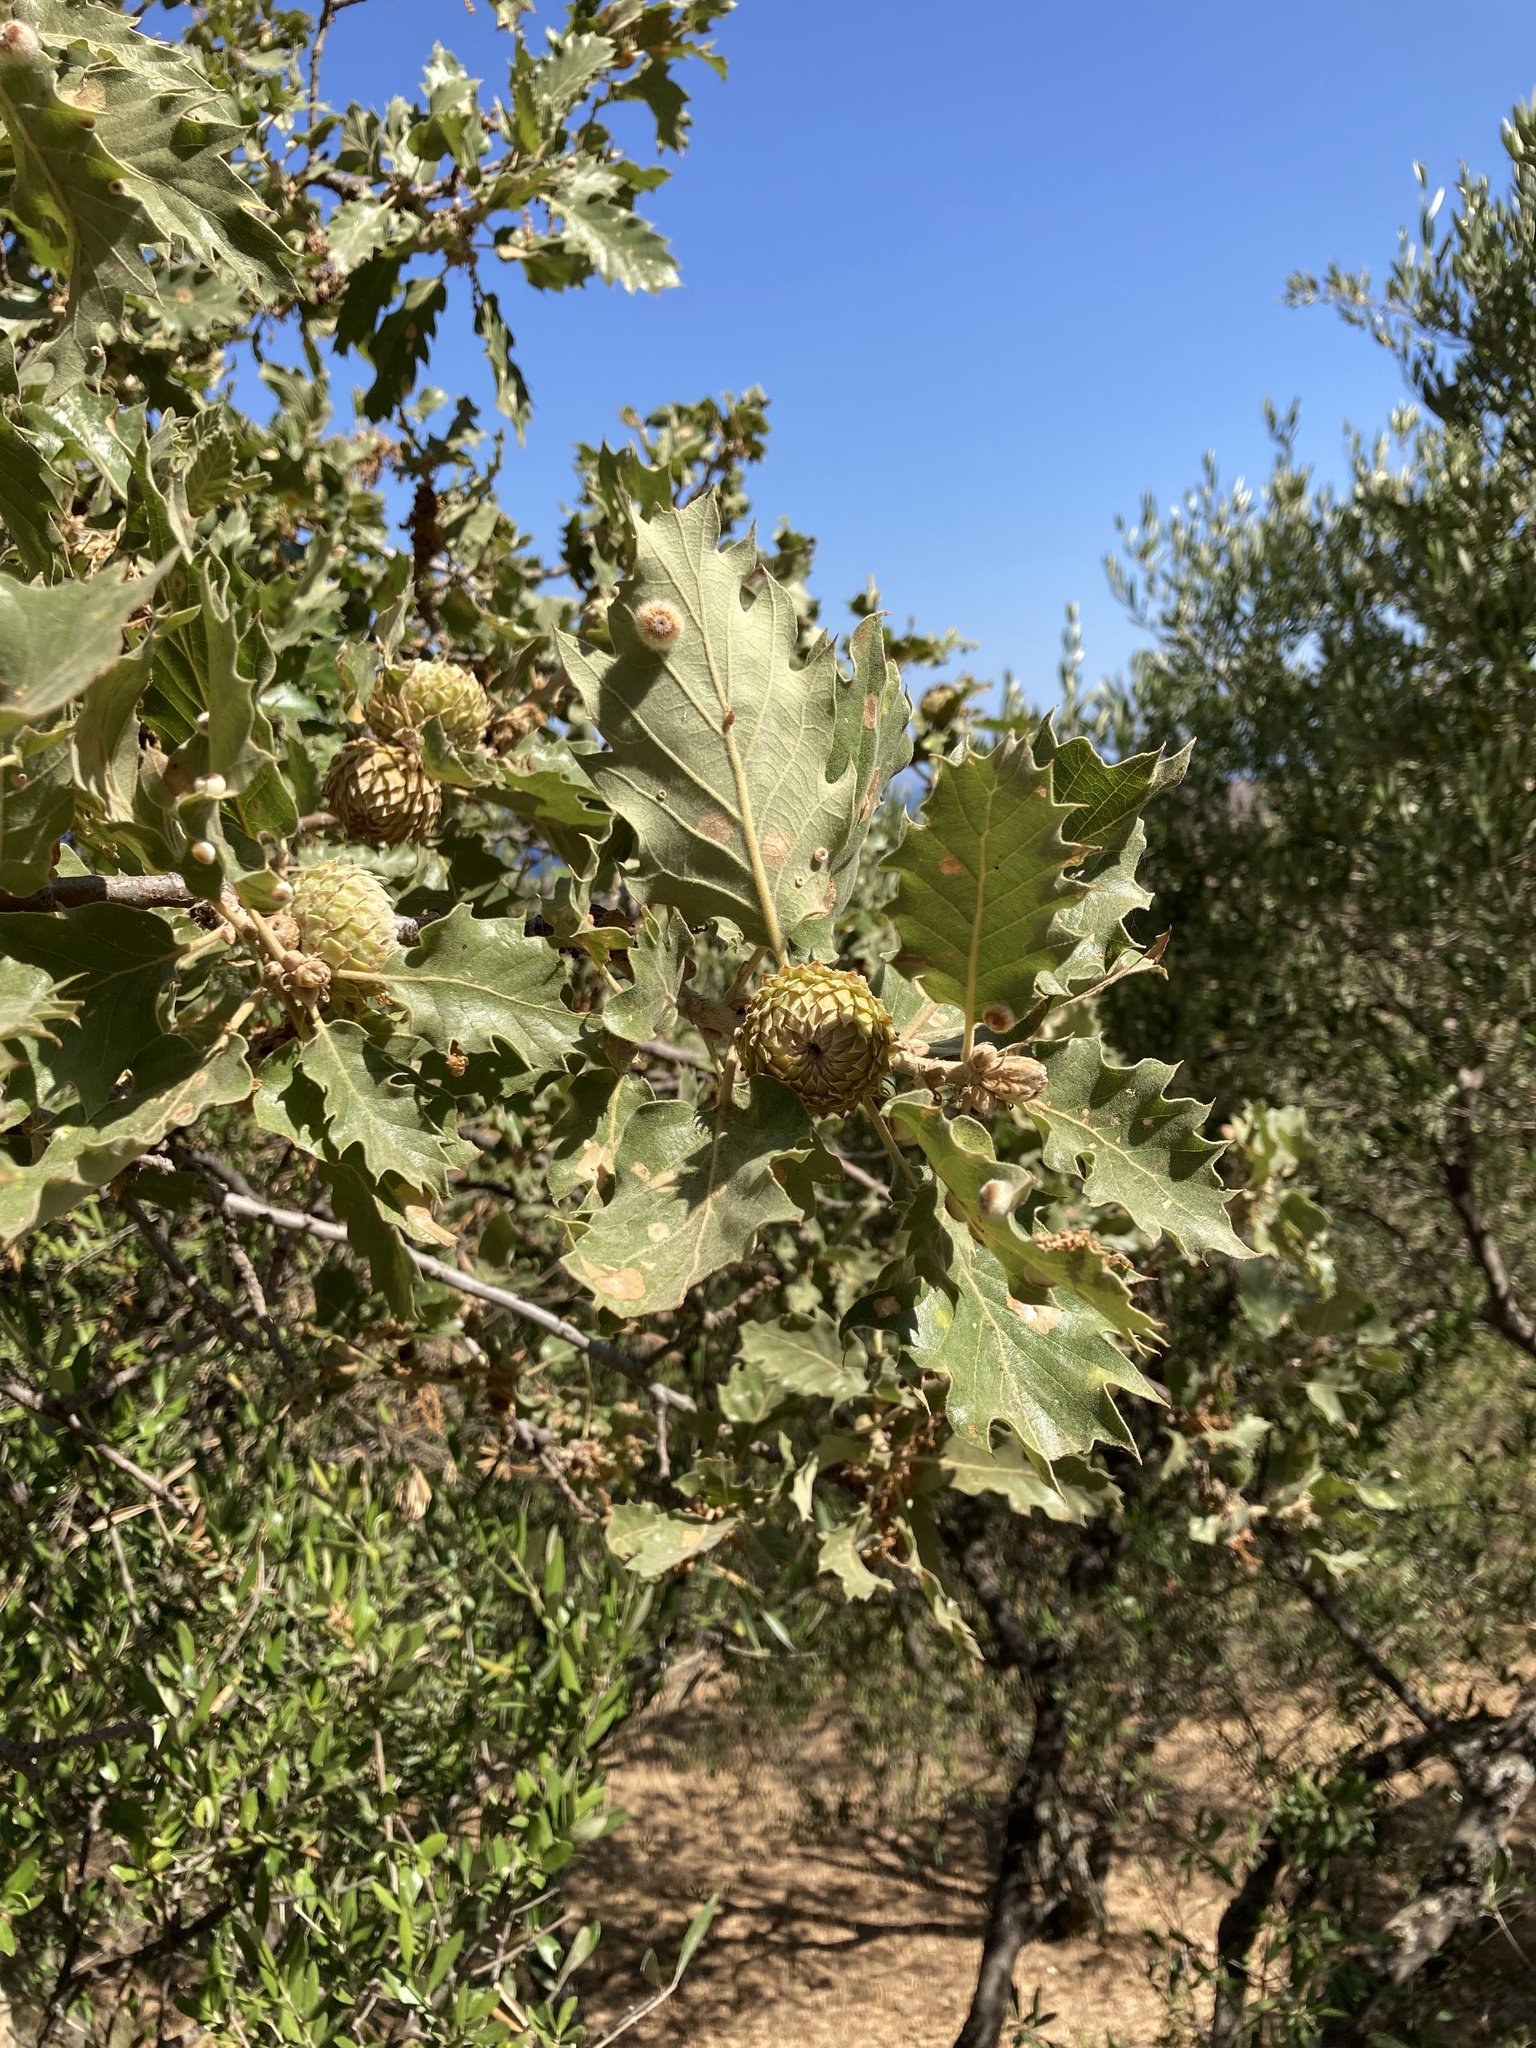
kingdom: Plantae
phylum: Tracheophyta
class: Magnoliopsida
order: Fagales
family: Fagaceae
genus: Quercus
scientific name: Quercus ithaburensis
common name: Tabor oak
